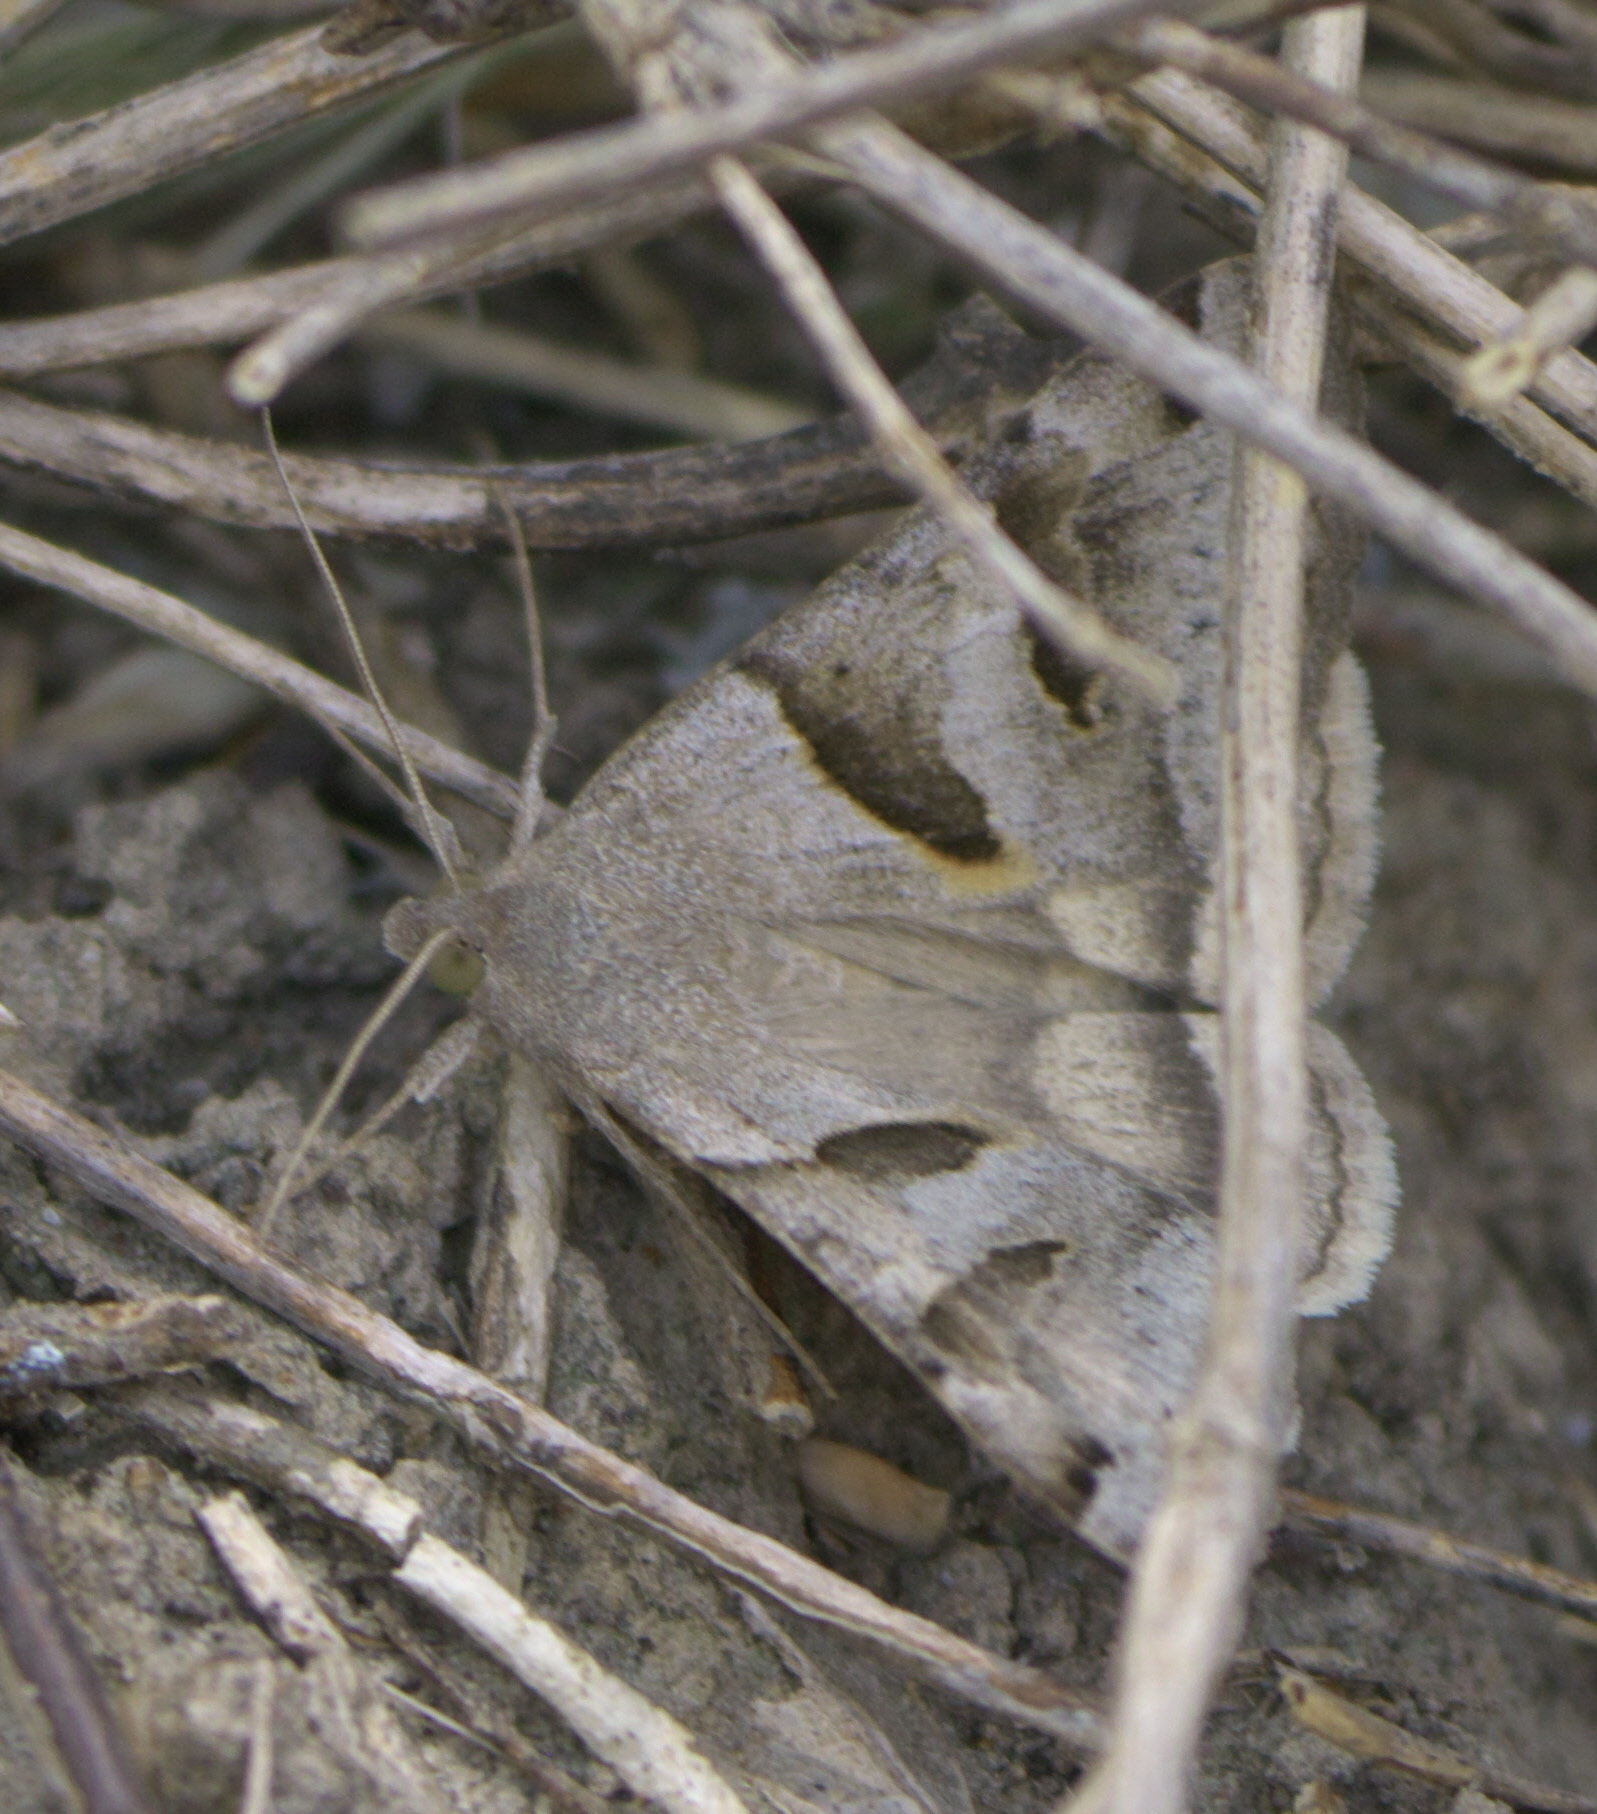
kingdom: Animalia
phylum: Arthropoda
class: Insecta
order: Lepidoptera
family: Erebidae
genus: Caenurgina
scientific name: Caenurgina erechtea
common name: Forage looper moth
